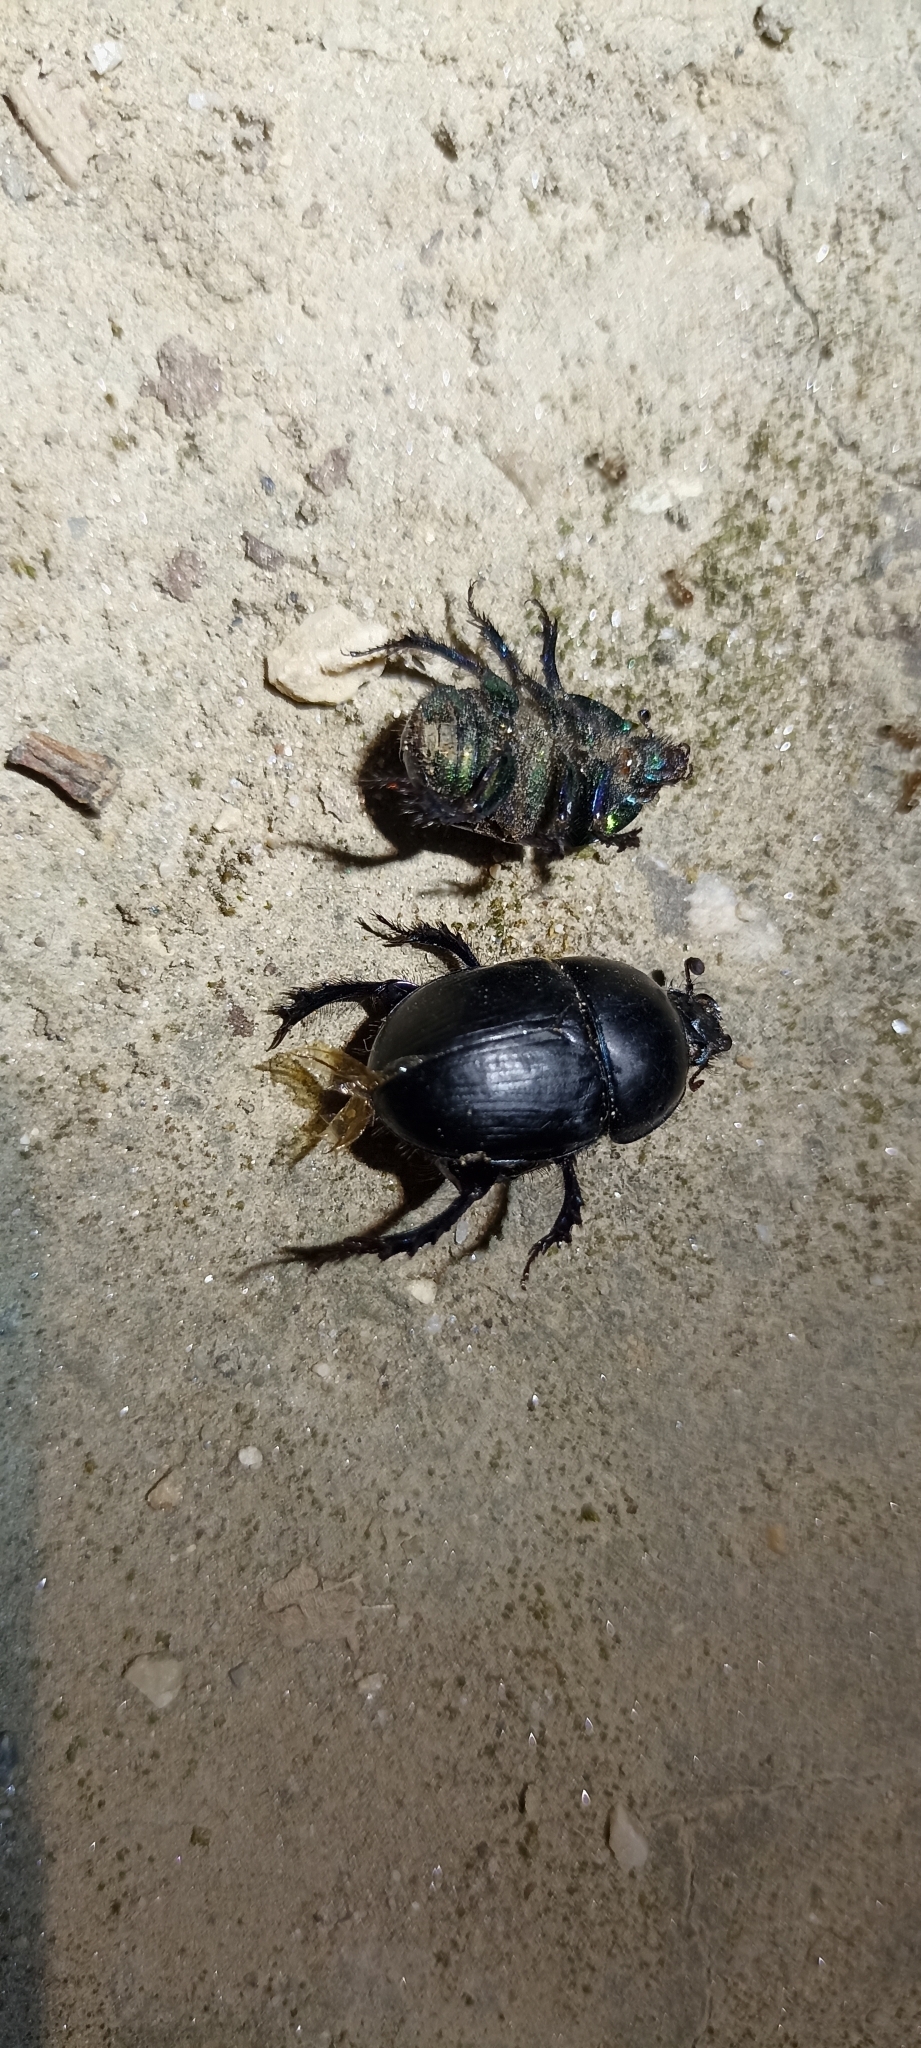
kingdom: Animalia
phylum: Arthropoda
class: Insecta
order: Coleoptera
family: Geotrupidae
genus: Sericotrupes
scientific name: Sericotrupes niger
